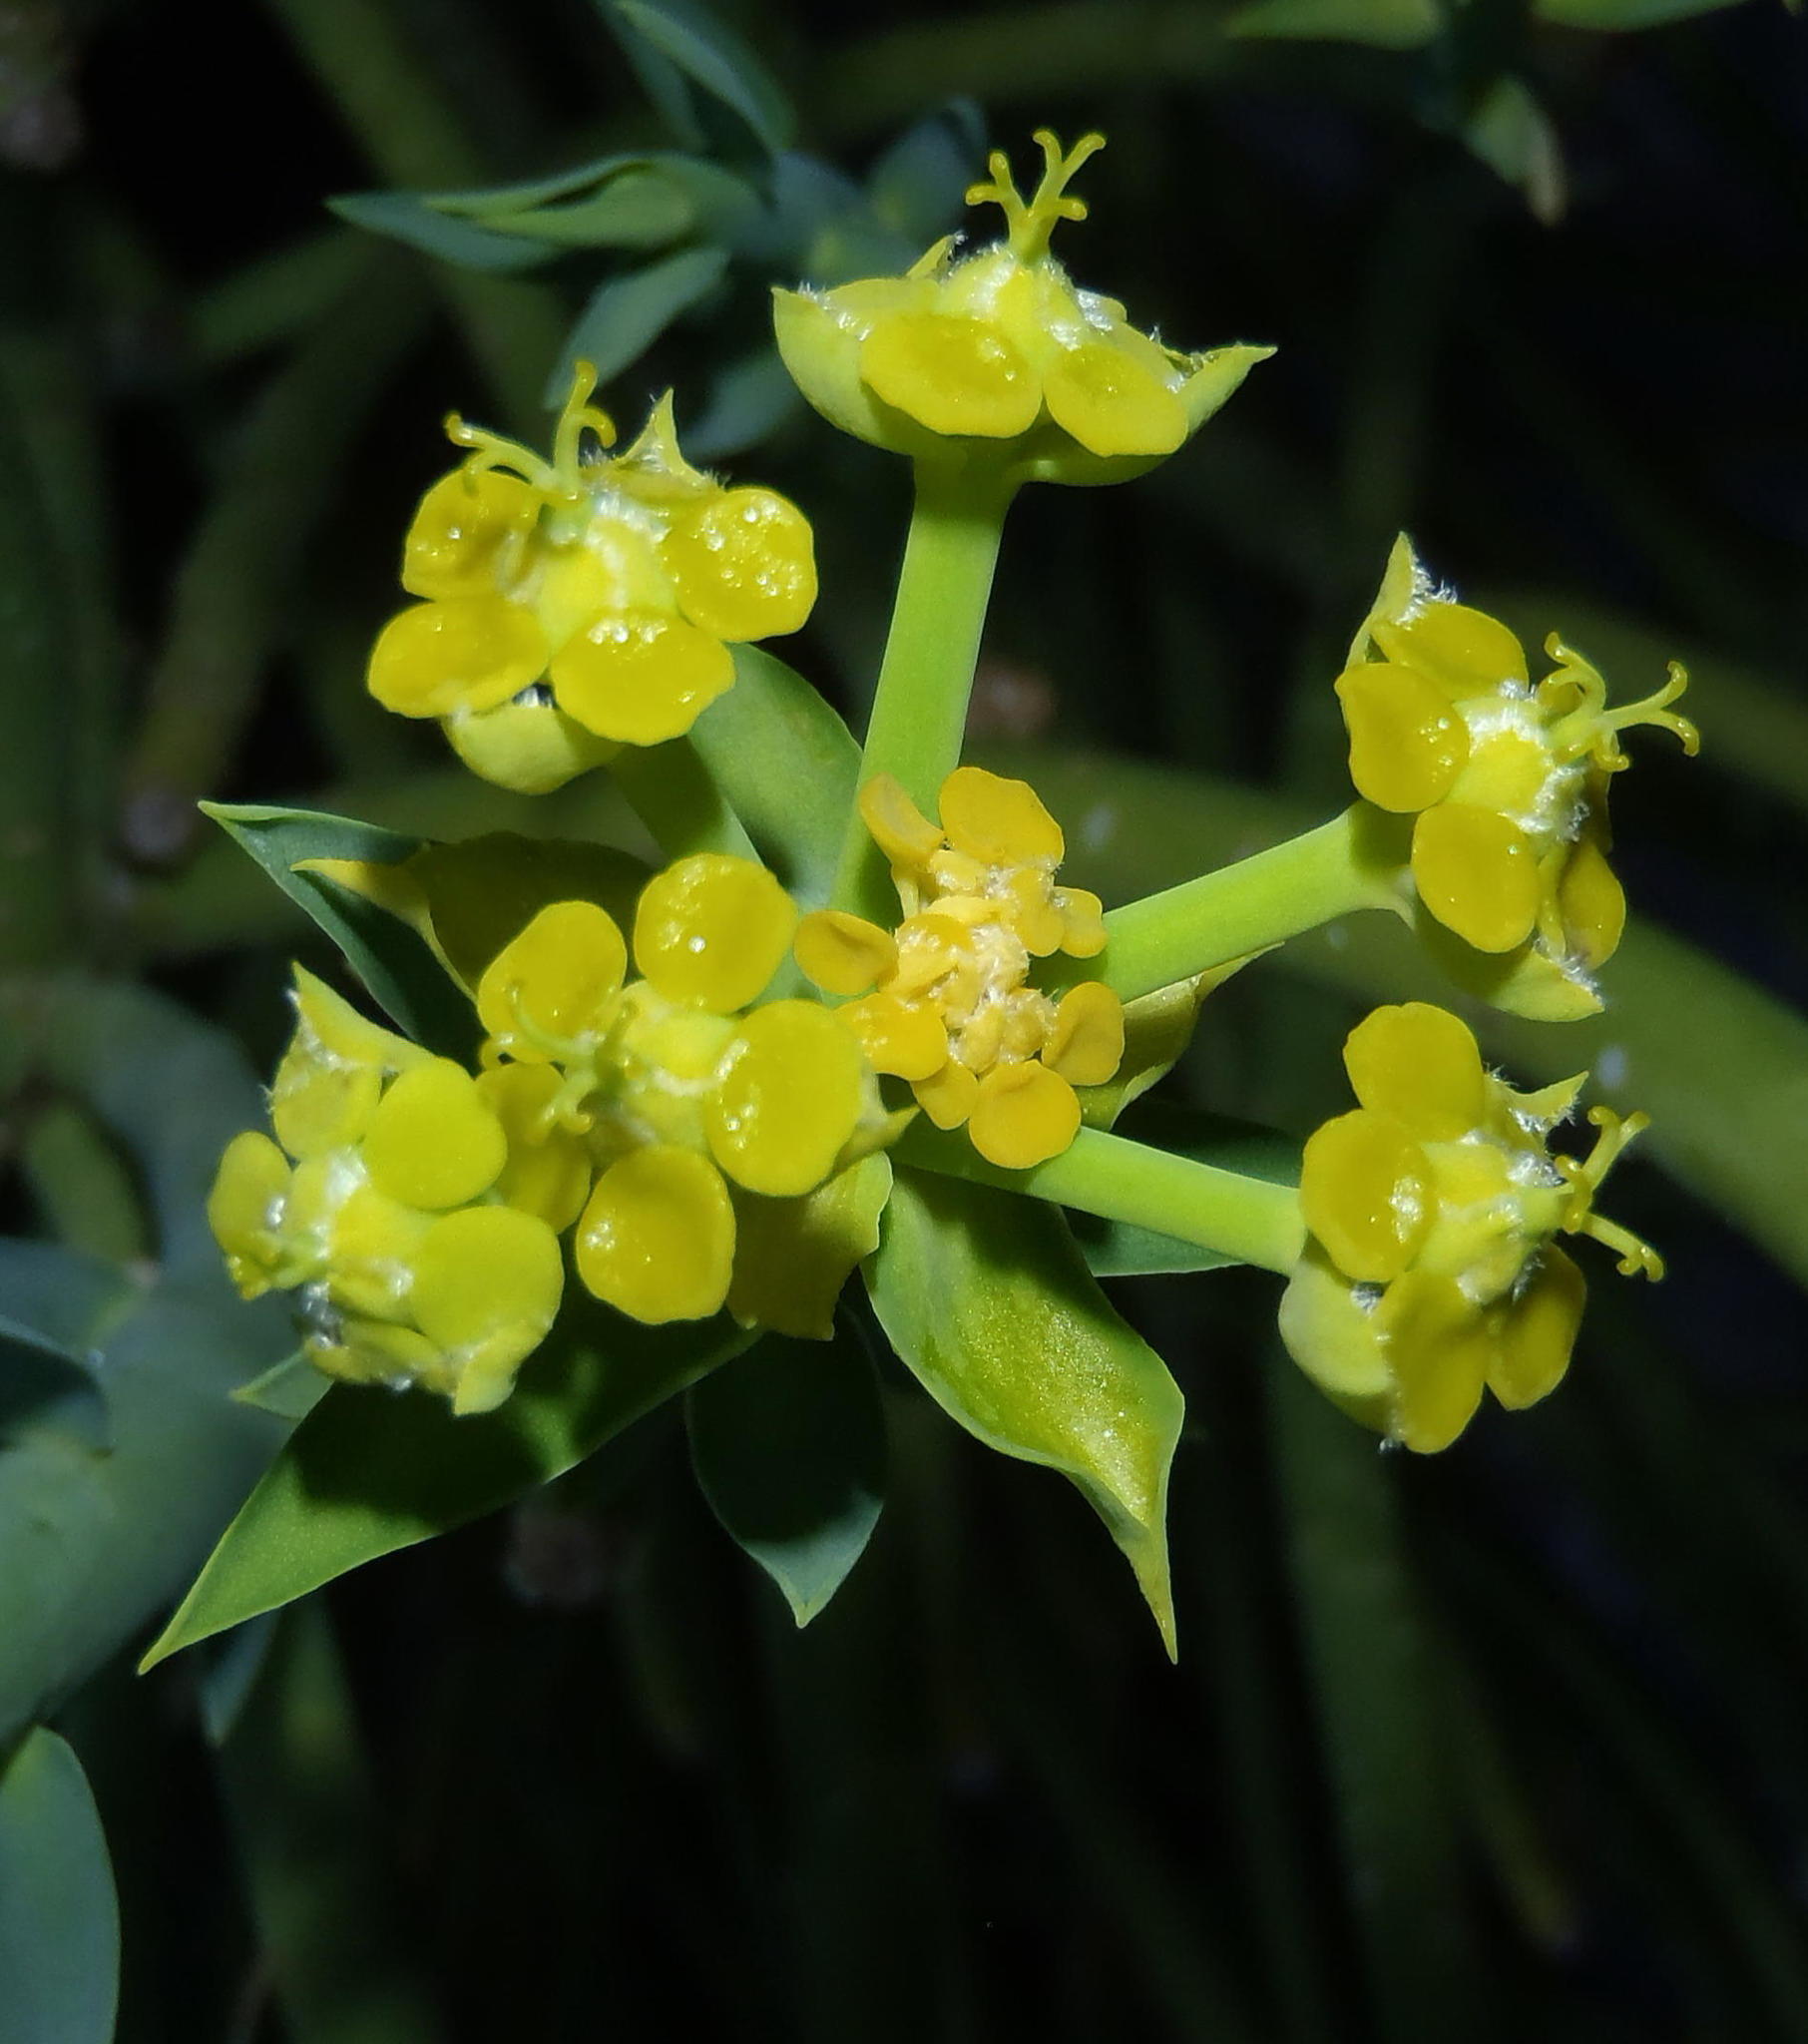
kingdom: Plantae
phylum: Tracheophyta
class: Magnoliopsida
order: Malpighiales
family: Euphorbiaceae
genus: Euphorbia
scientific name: Euphorbia mauritanica
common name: Jackal's-food
